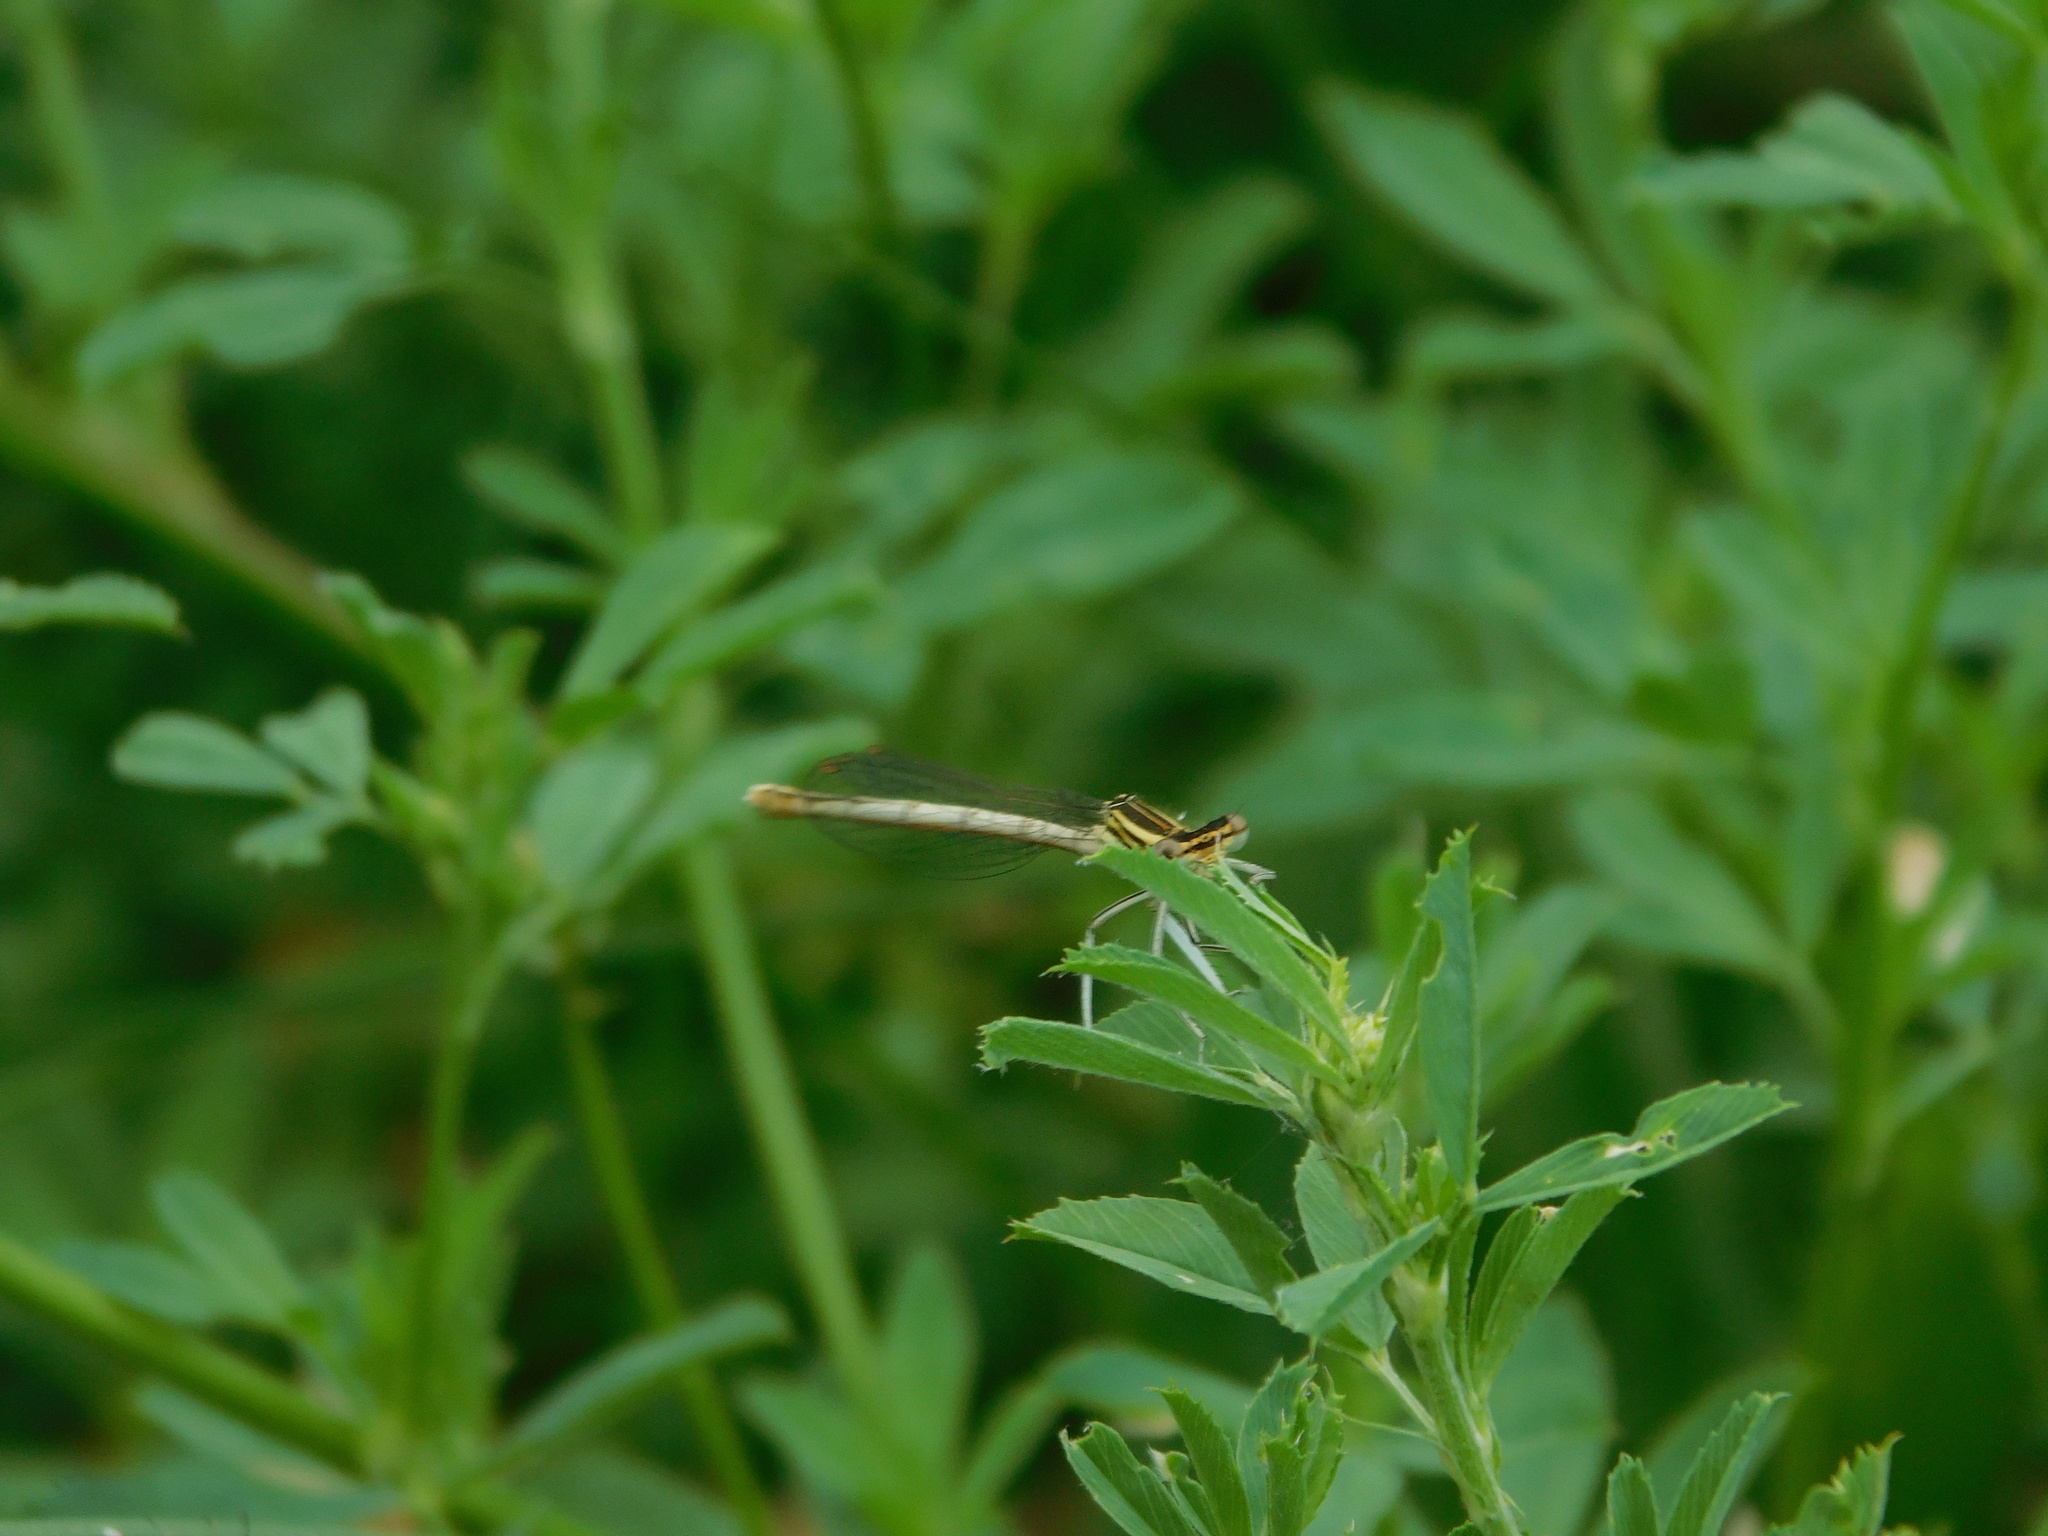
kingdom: Animalia
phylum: Arthropoda
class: Insecta
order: Odonata
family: Platycnemididae
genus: Platycnemis
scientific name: Platycnemis pennipes
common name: White-legged damselfly
